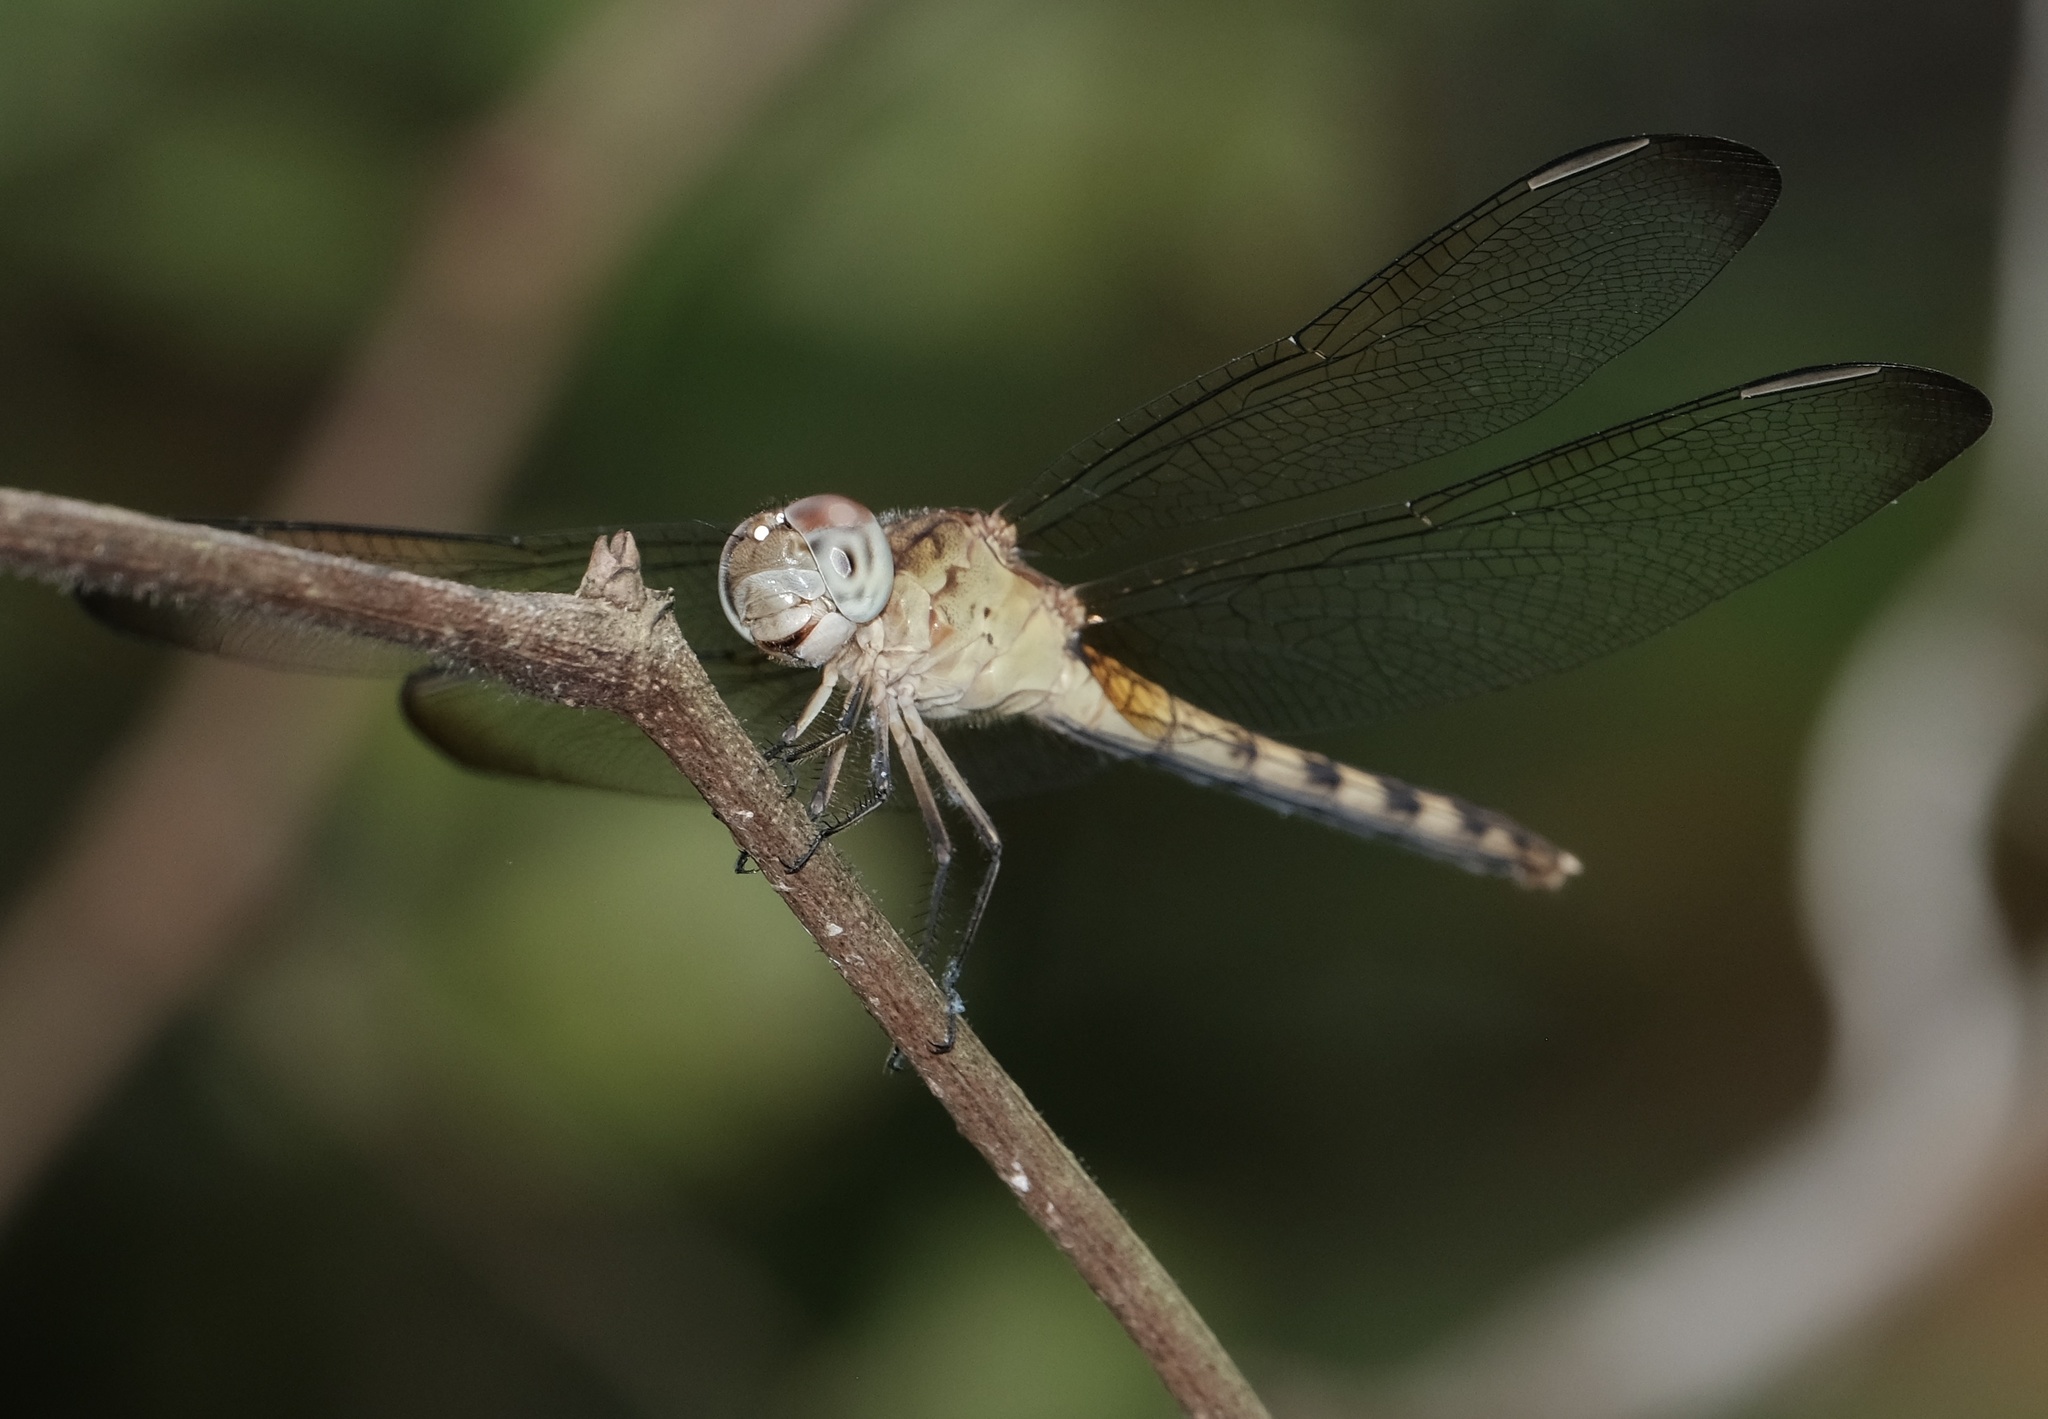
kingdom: Animalia
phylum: Arthropoda
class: Insecta
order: Odonata
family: Libellulidae
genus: Erythrodiplax
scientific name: Erythrodiplax umbrata
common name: Band-winged dragonlet
